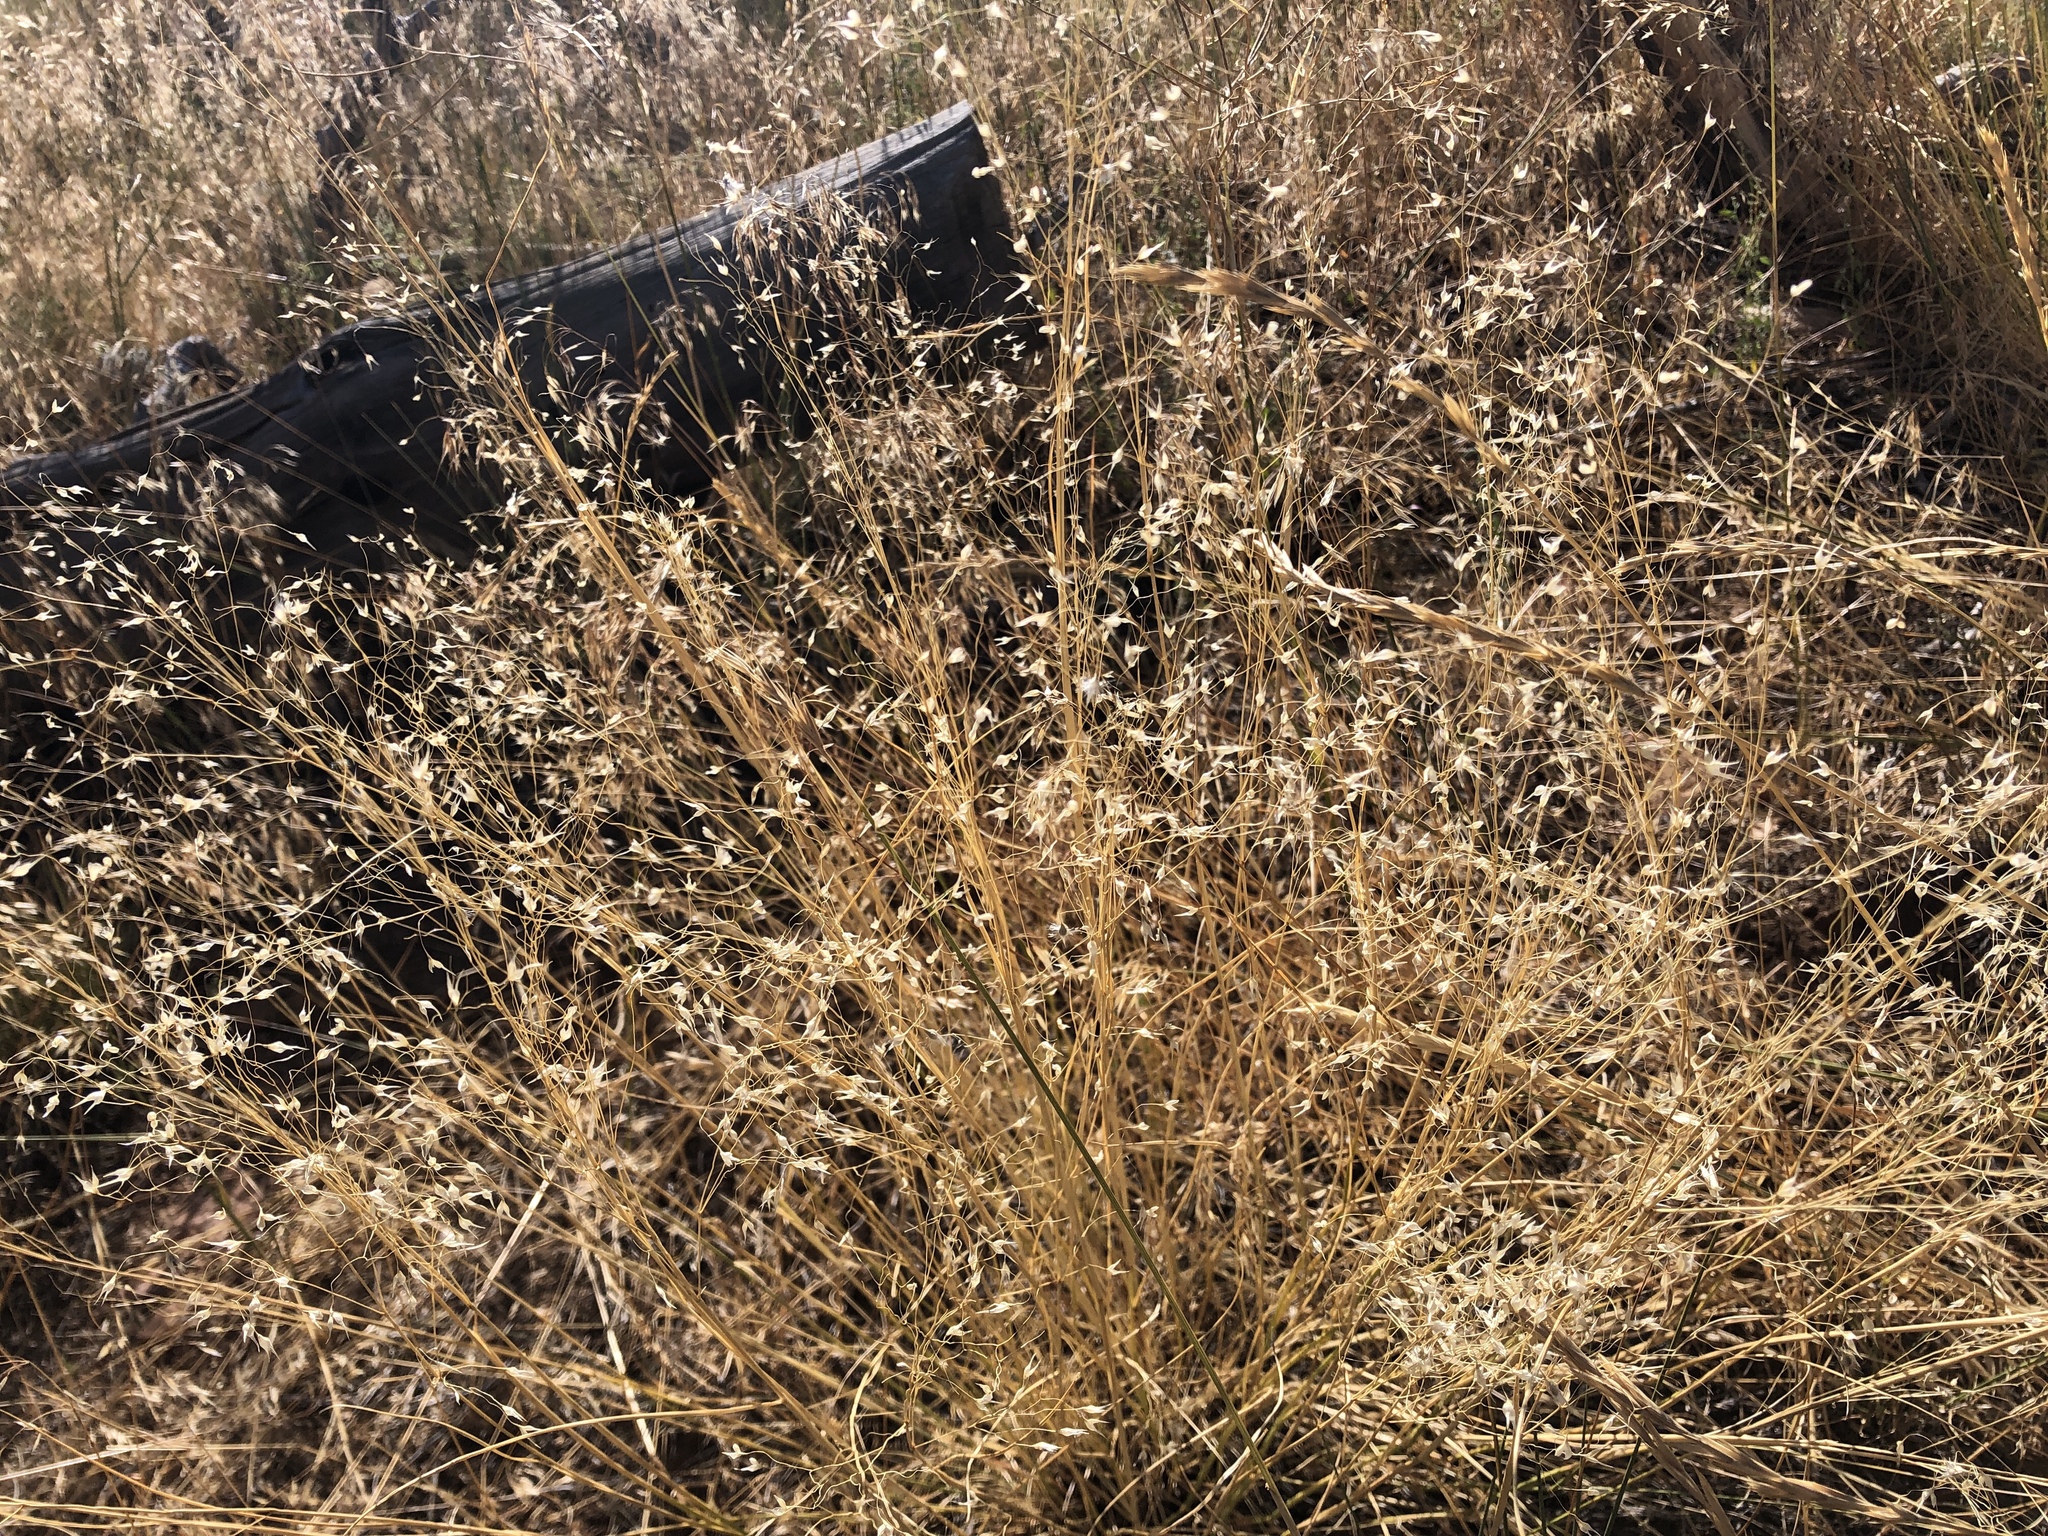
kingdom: Plantae
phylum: Tracheophyta
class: Liliopsida
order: Poales
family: Poaceae
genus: Eriocoma
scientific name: Eriocoma hymenoides
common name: Indian mountain ricegrass
